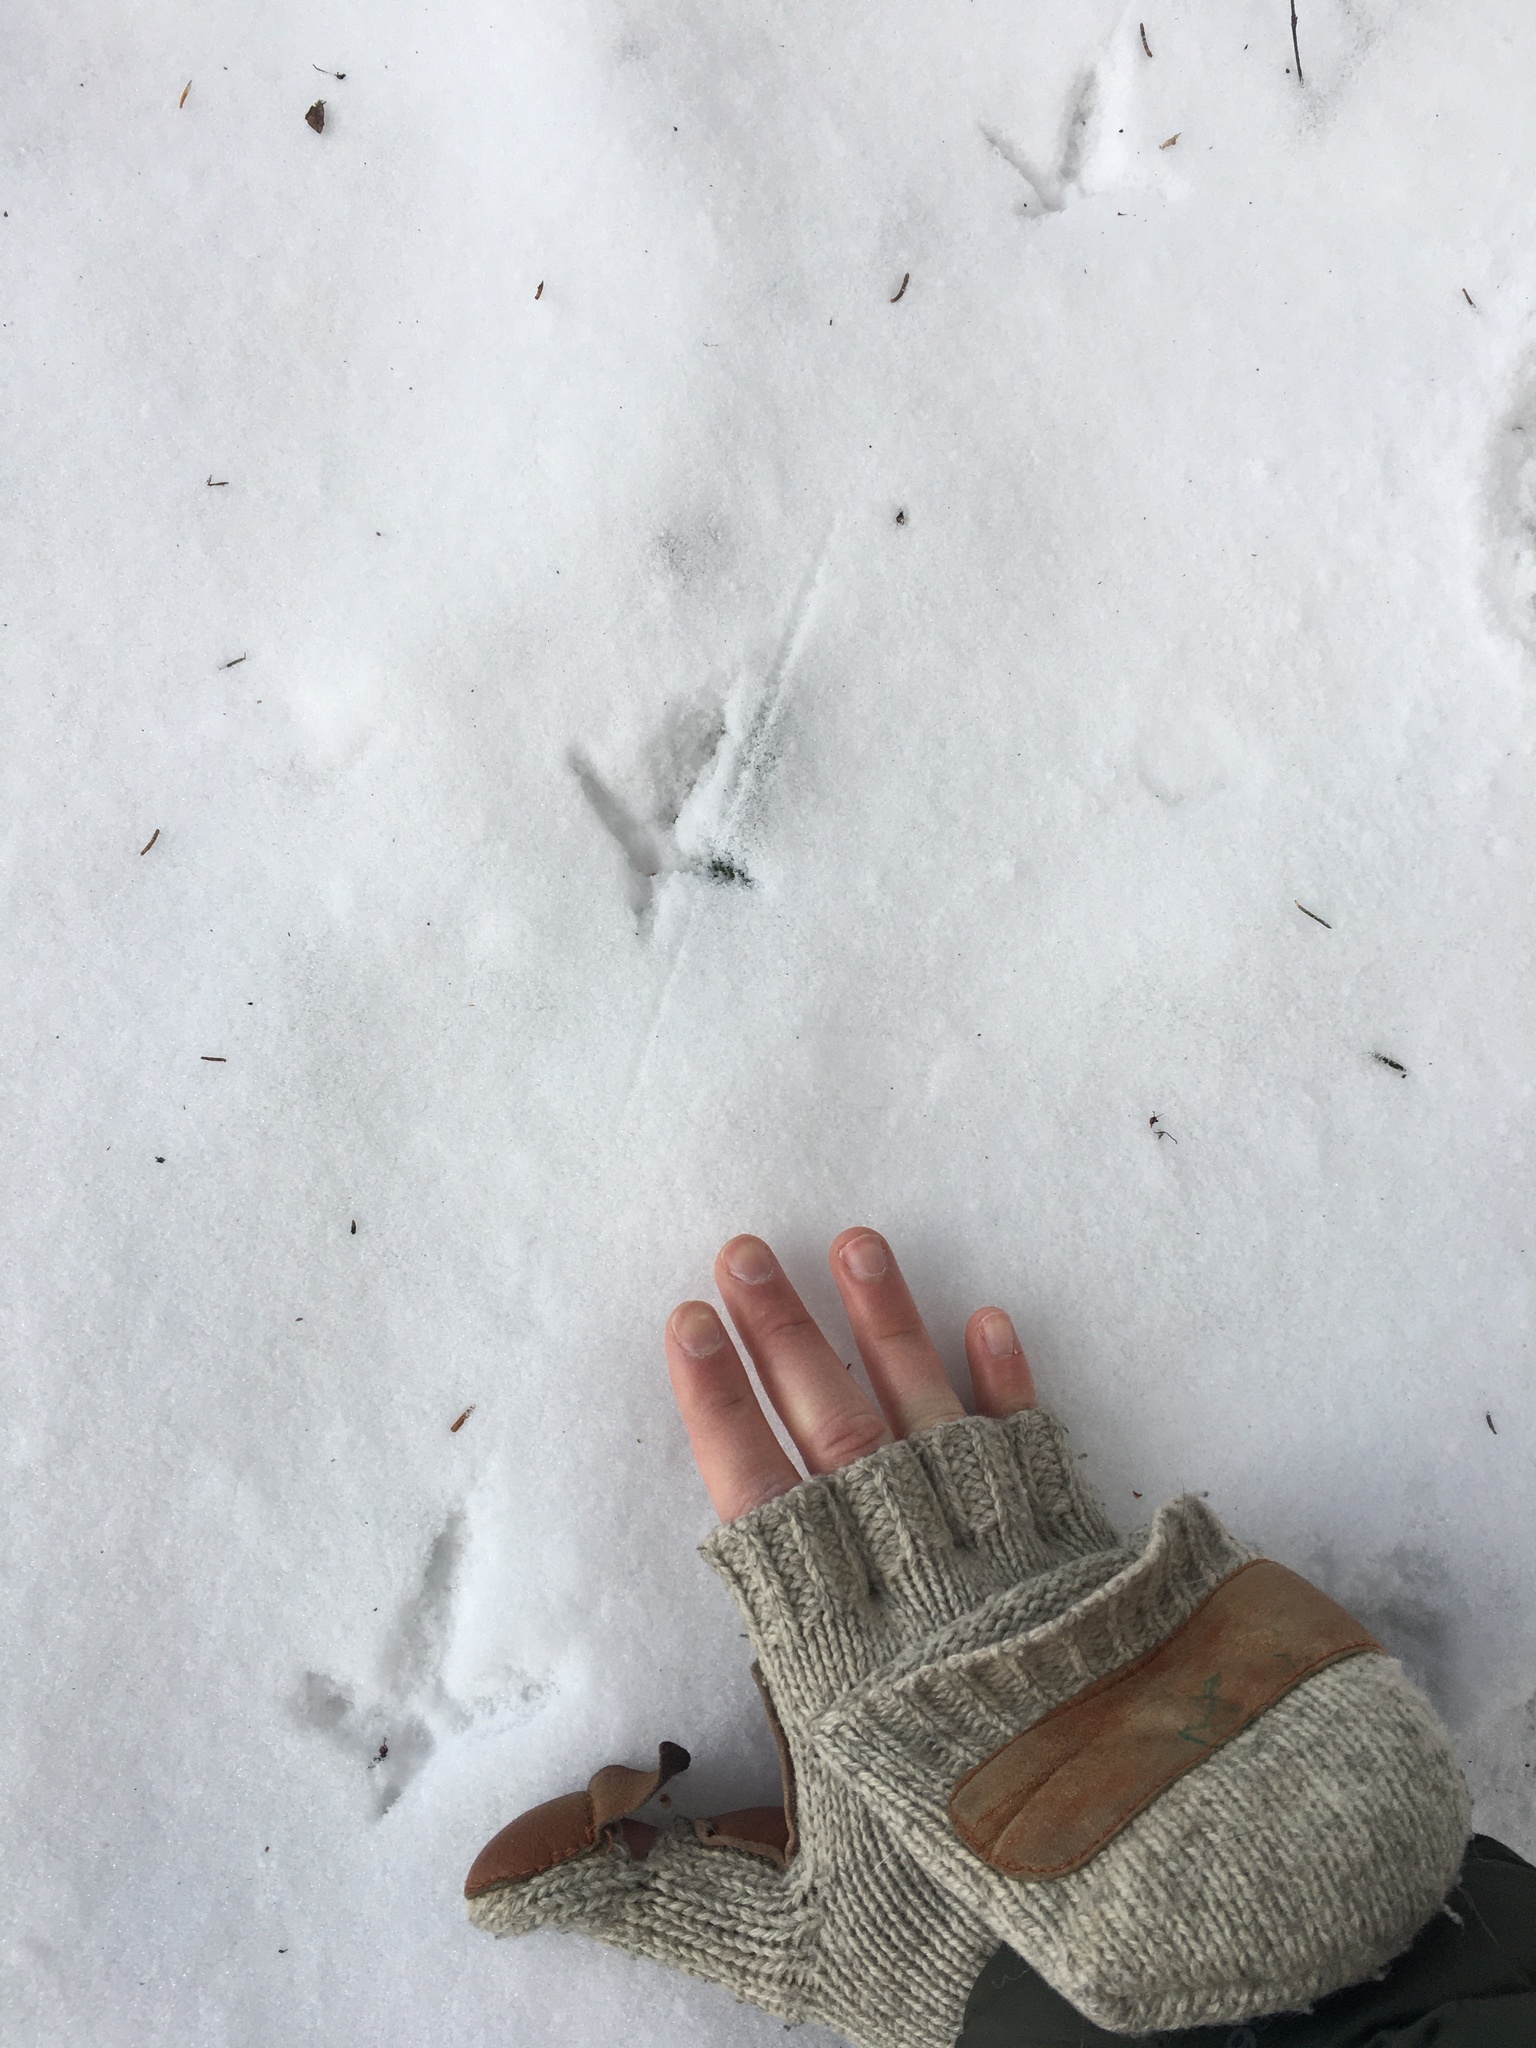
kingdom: Animalia
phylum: Chordata
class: Aves
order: Galliformes
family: Phasianidae
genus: Bonasa
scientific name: Bonasa umbellus
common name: Ruffed grouse
